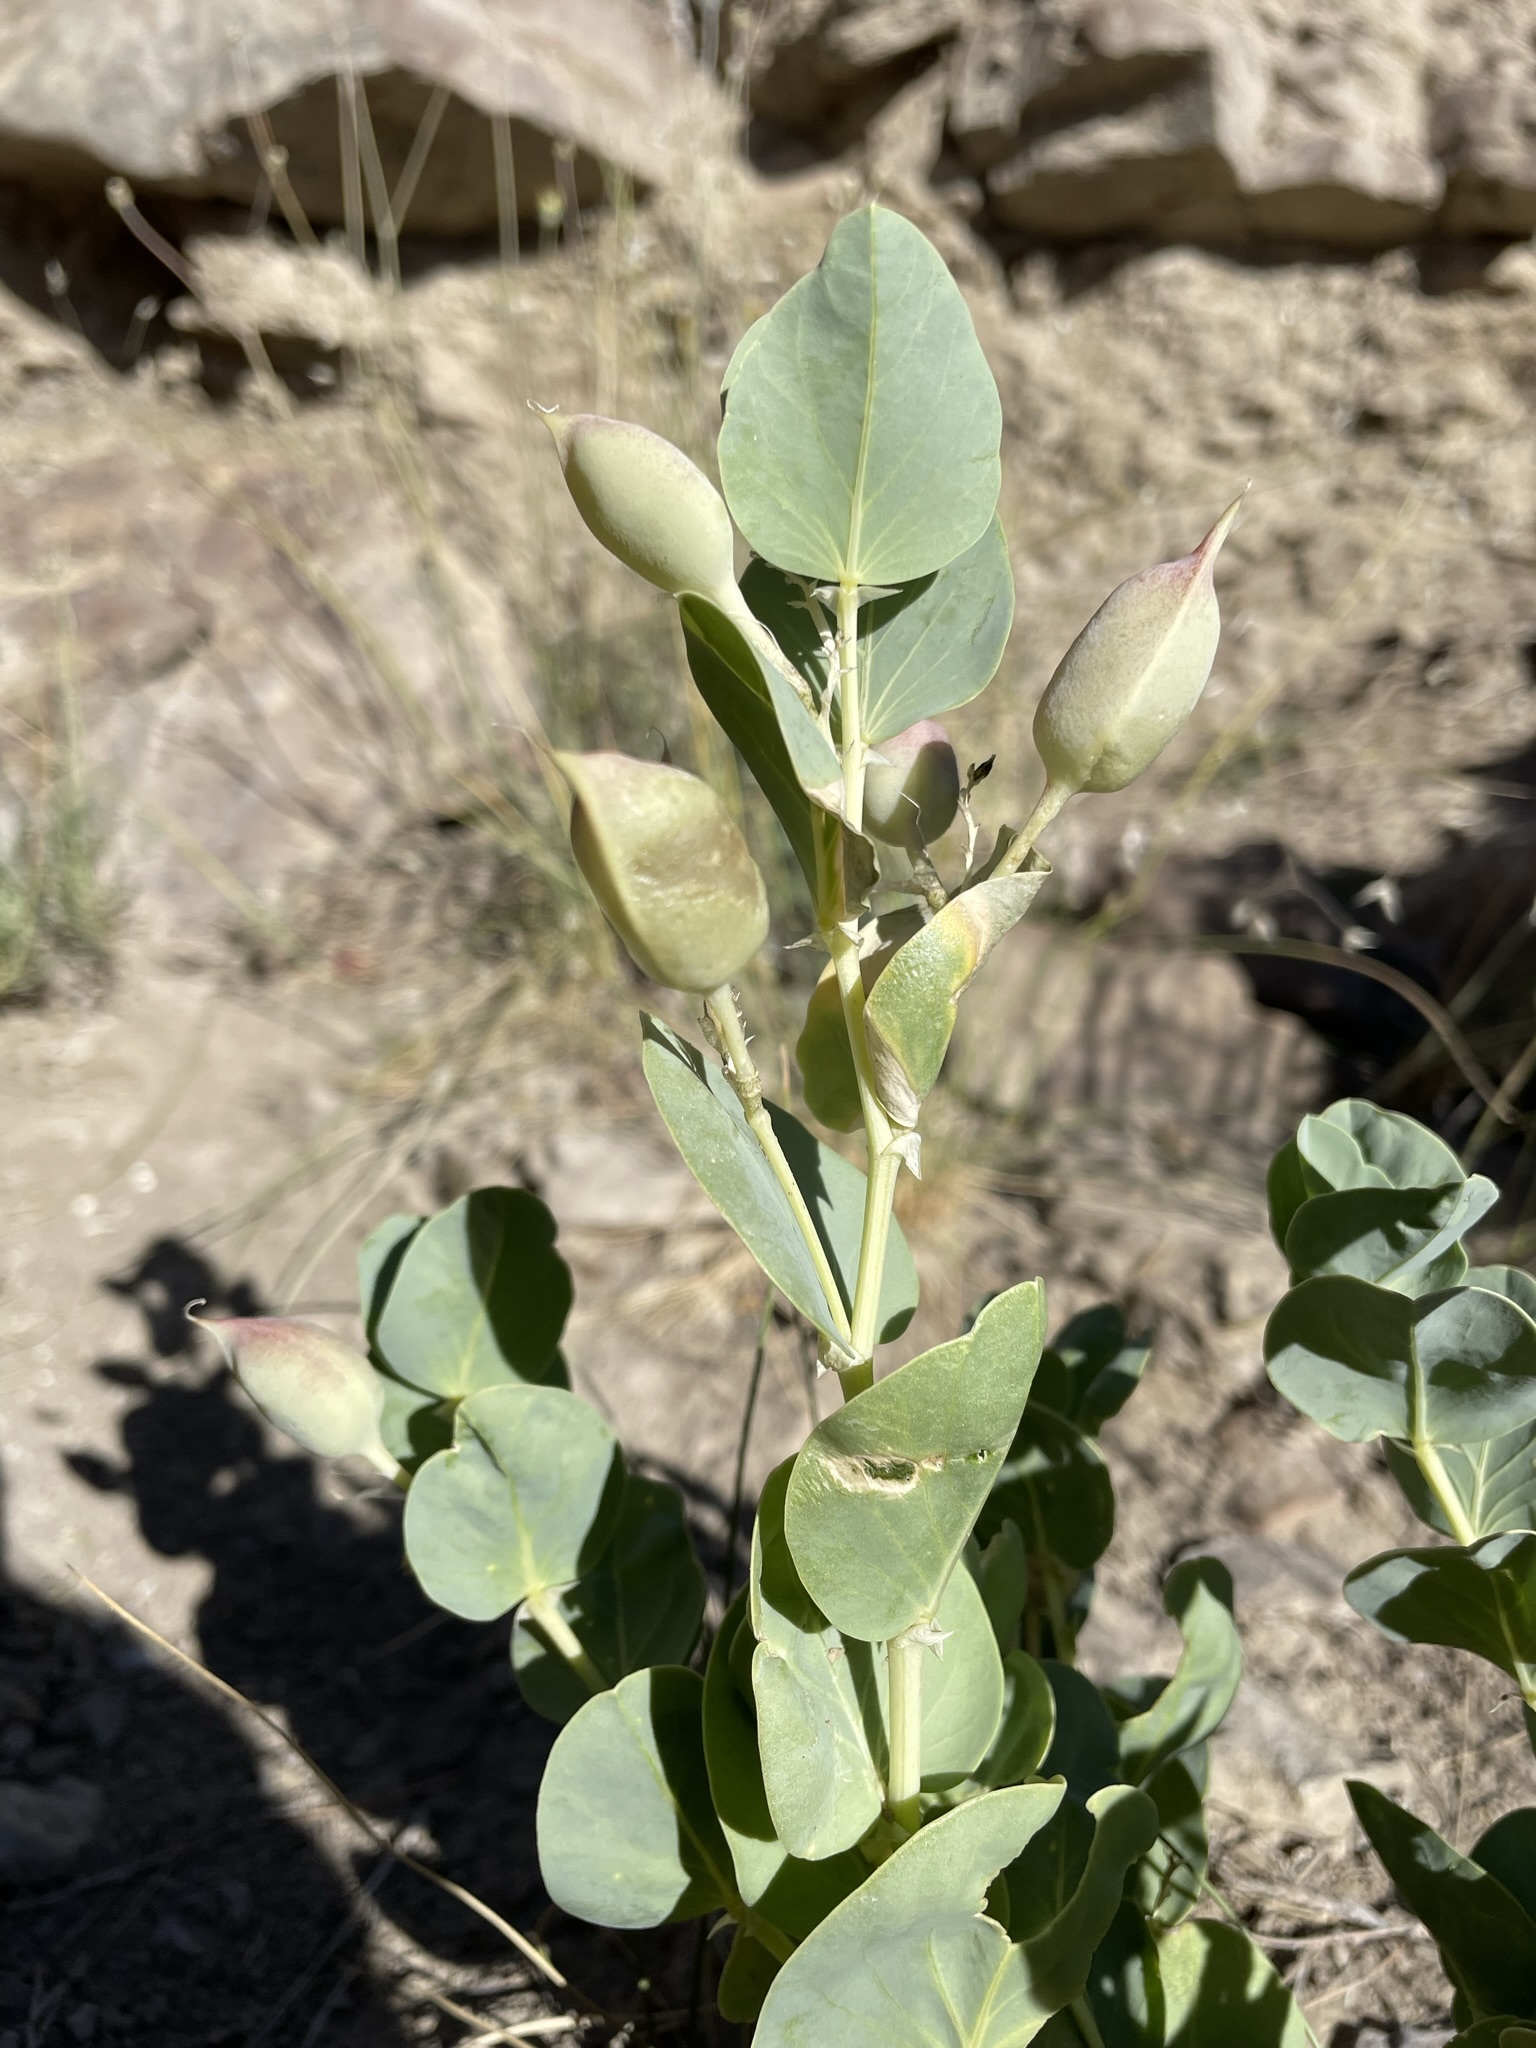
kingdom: Plantae
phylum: Tracheophyta
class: Magnoliopsida
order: Fabales
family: Fabaceae
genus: Astragalus
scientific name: Astragalus asclepiadoides
